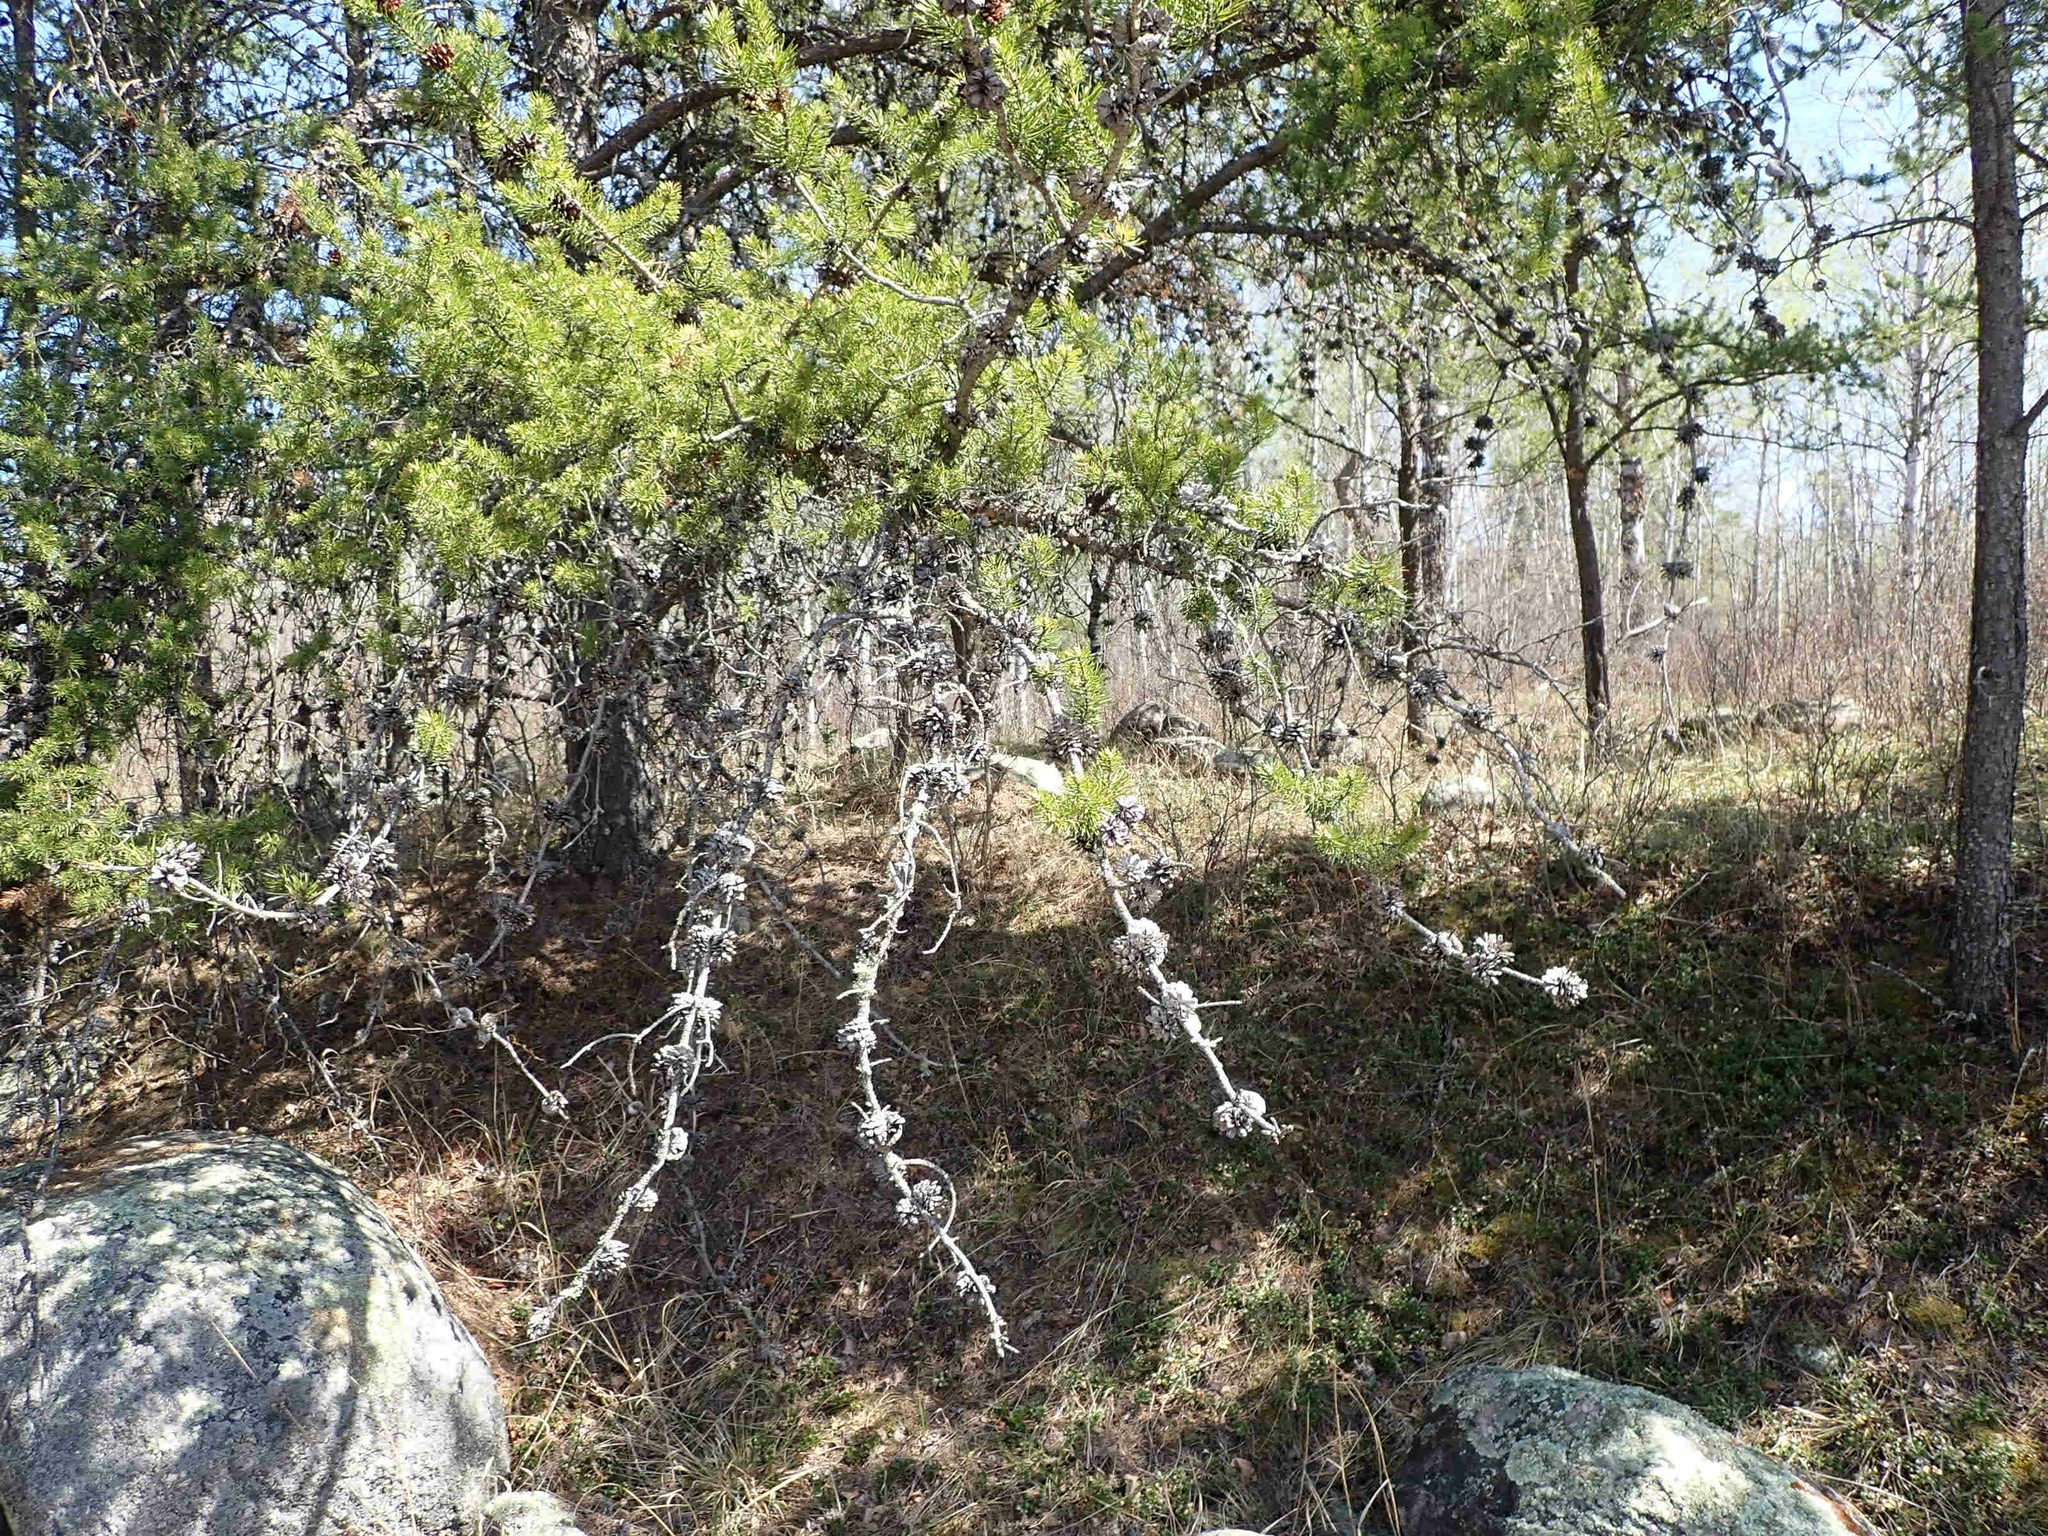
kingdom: Plantae
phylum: Tracheophyta
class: Pinopsida
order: Pinales
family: Pinaceae
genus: Pinus
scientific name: Pinus banksiana
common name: Jack pine
